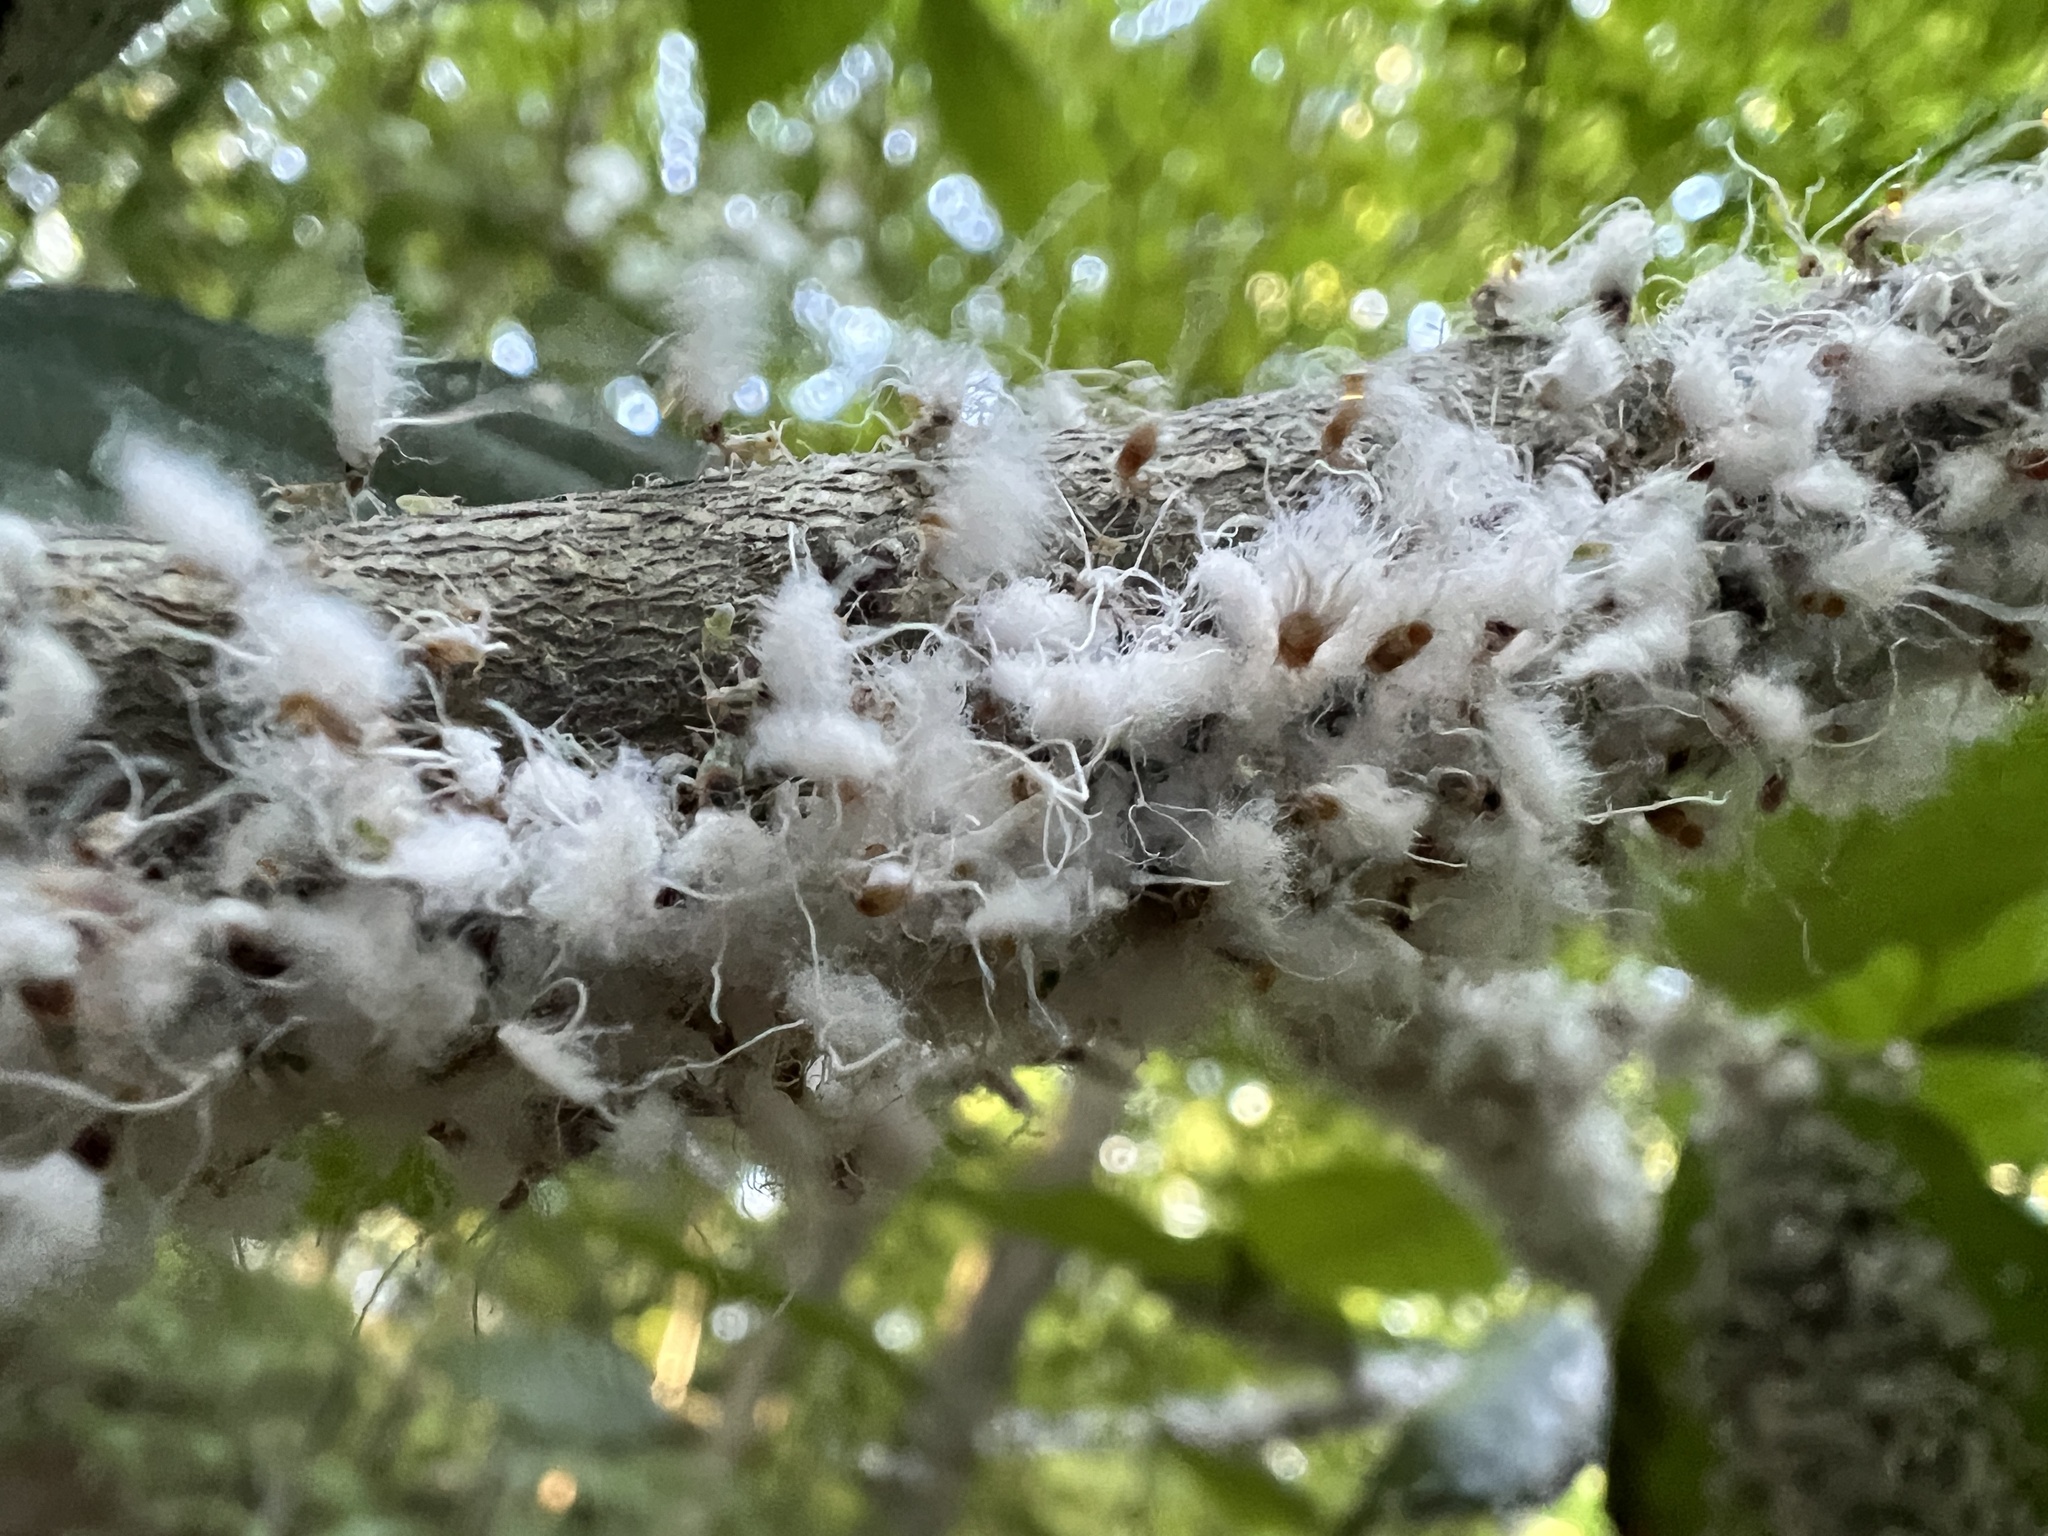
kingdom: Animalia
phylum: Arthropoda
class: Insecta
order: Hemiptera
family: Aphididae
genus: Grylloprociphilus
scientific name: Grylloprociphilus imbricator
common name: Beech blight aphid
